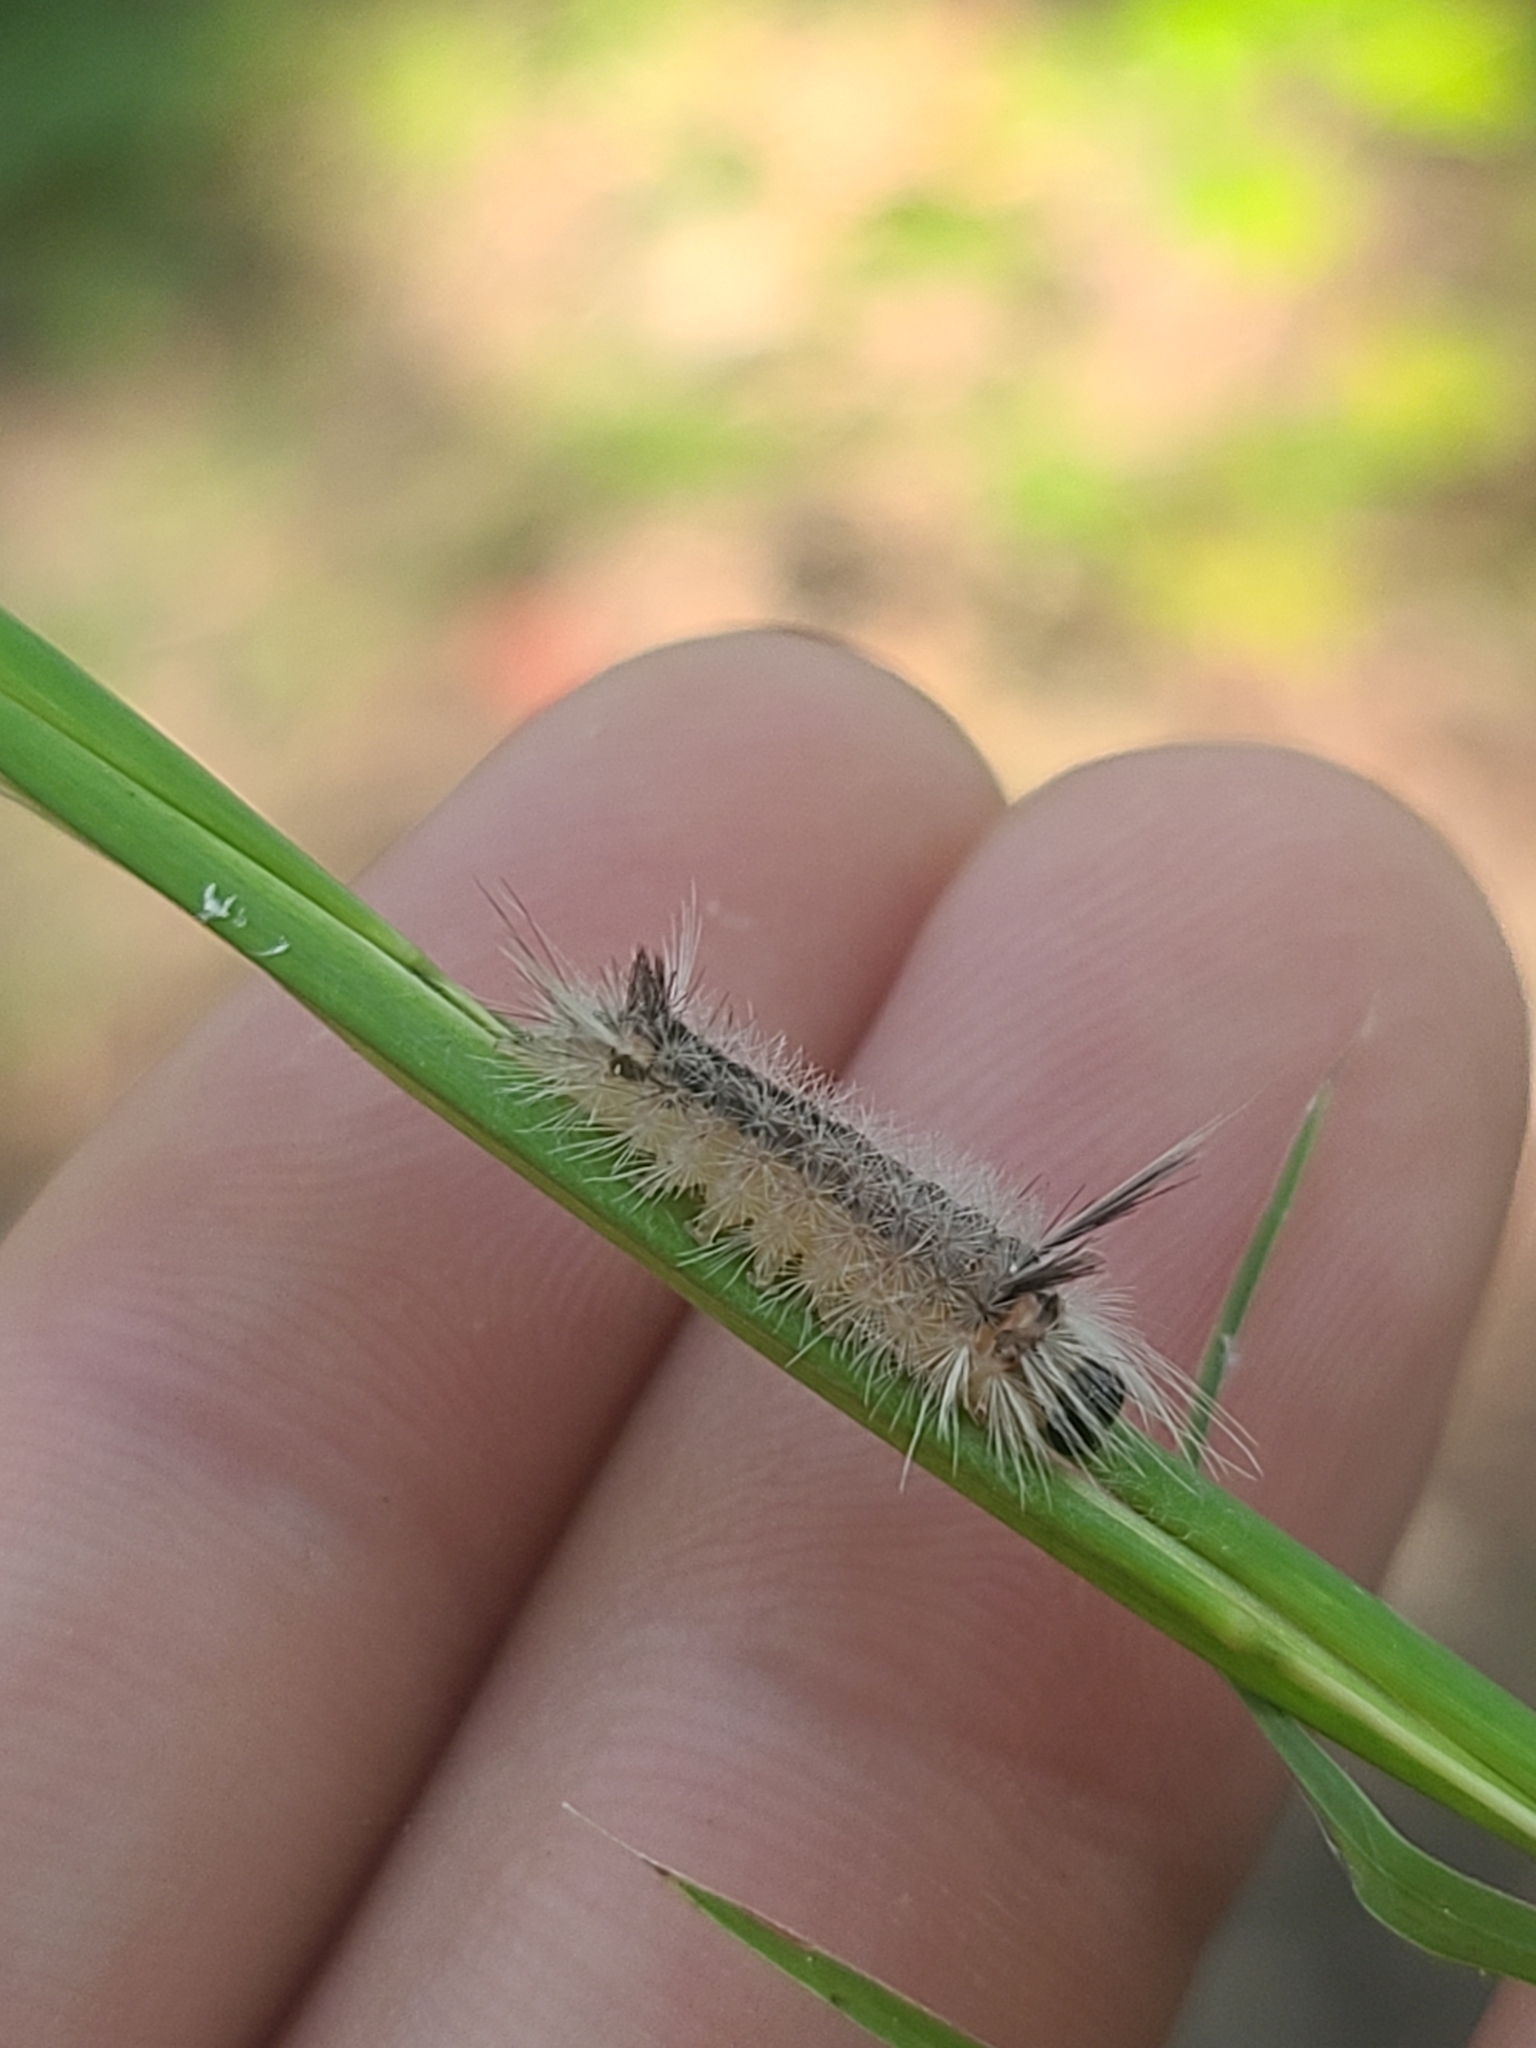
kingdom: Animalia
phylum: Arthropoda
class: Insecta
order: Lepidoptera
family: Erebidae
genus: Halysidota
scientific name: Halysidota tessellaris
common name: Banded tussock moth
